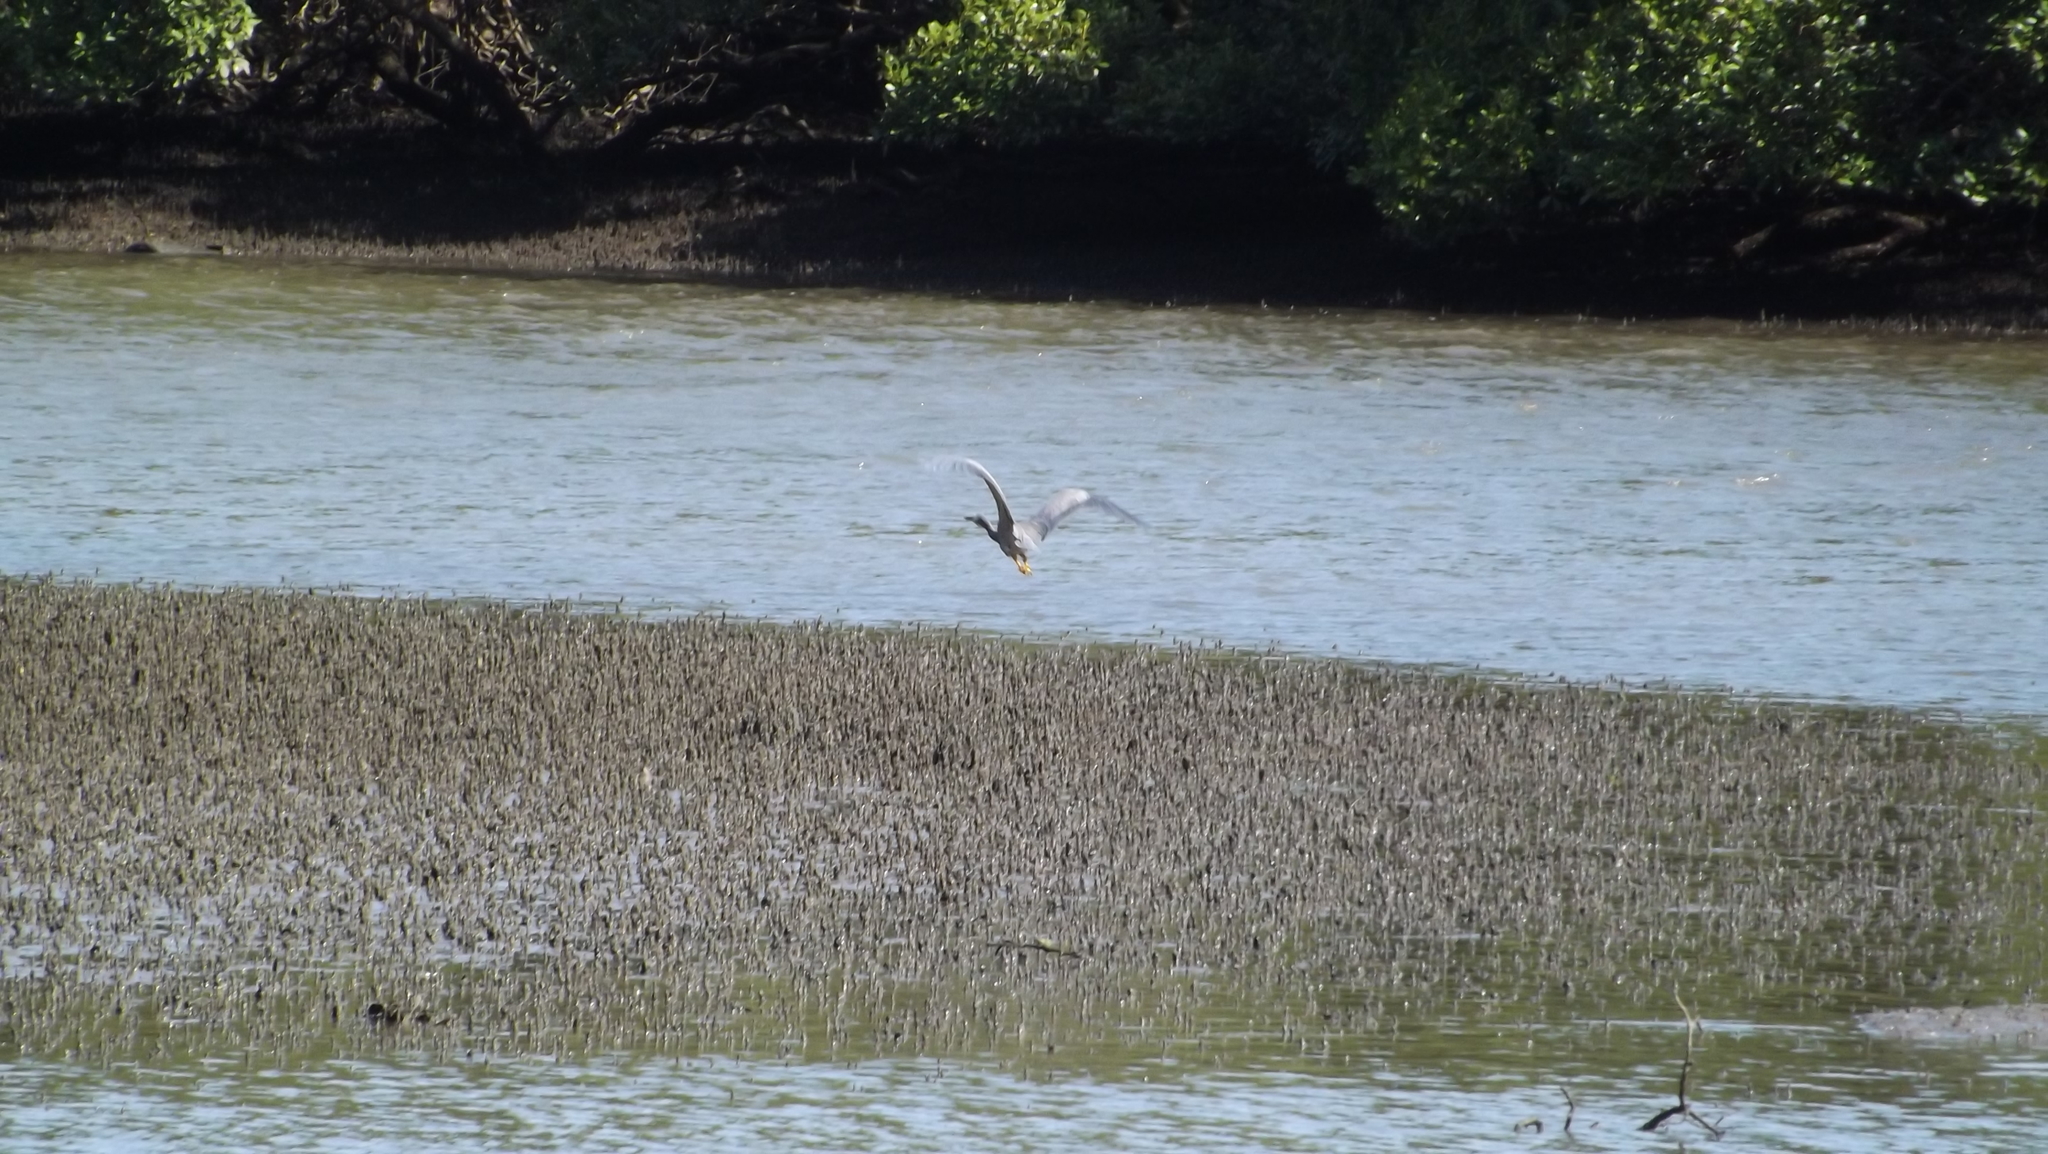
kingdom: Animalia
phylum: Chordata
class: Aves
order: Pelecaniformes
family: Ardeidae
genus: Egretta
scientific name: Egretta novaehollandiae
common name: White-faced heron
